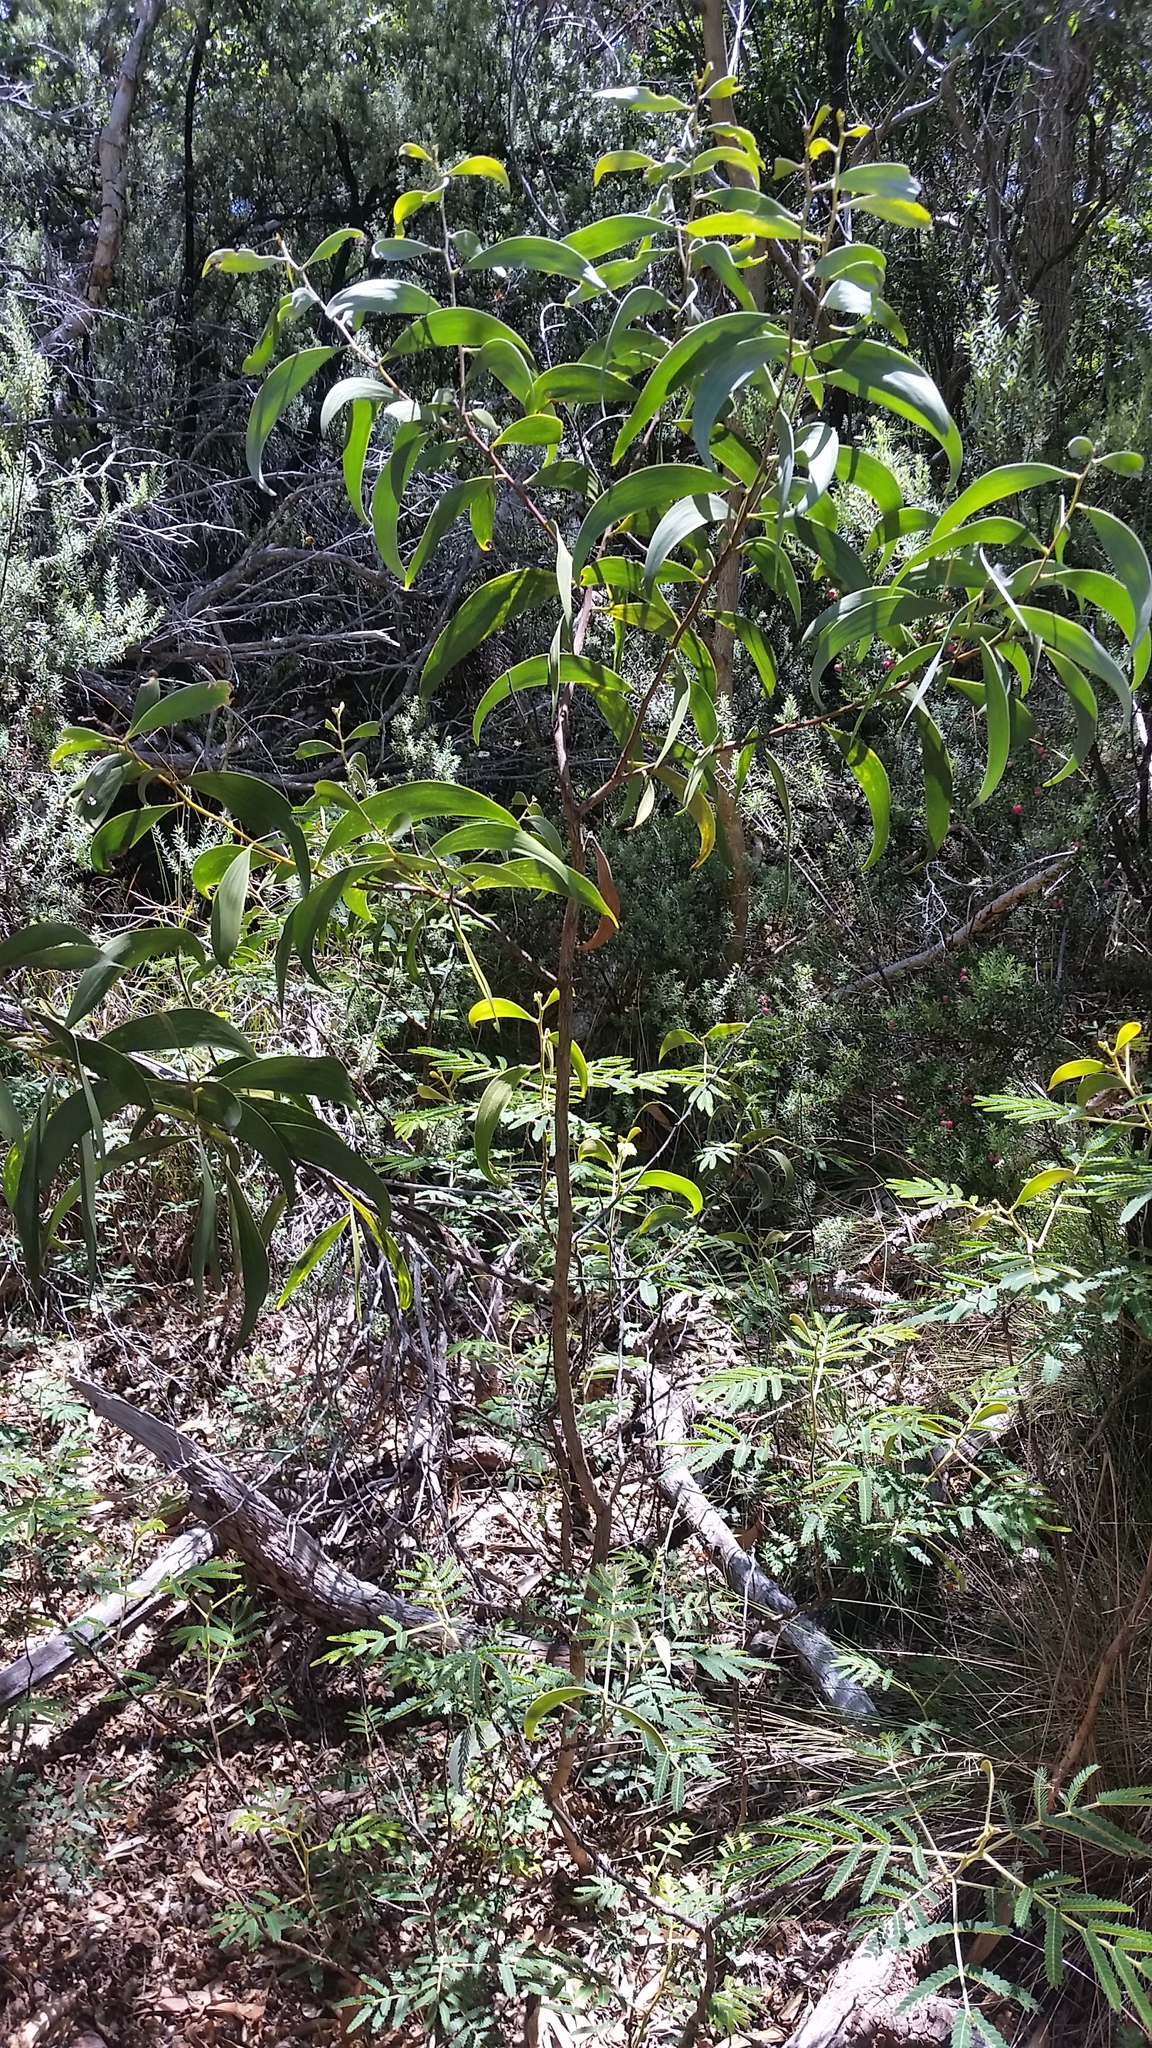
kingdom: Plantae
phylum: Tracheophyta
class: Magnoliopsida
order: Fabales
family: Fabaceae
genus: Acacia
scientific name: Acacia koa
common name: Gray koa
